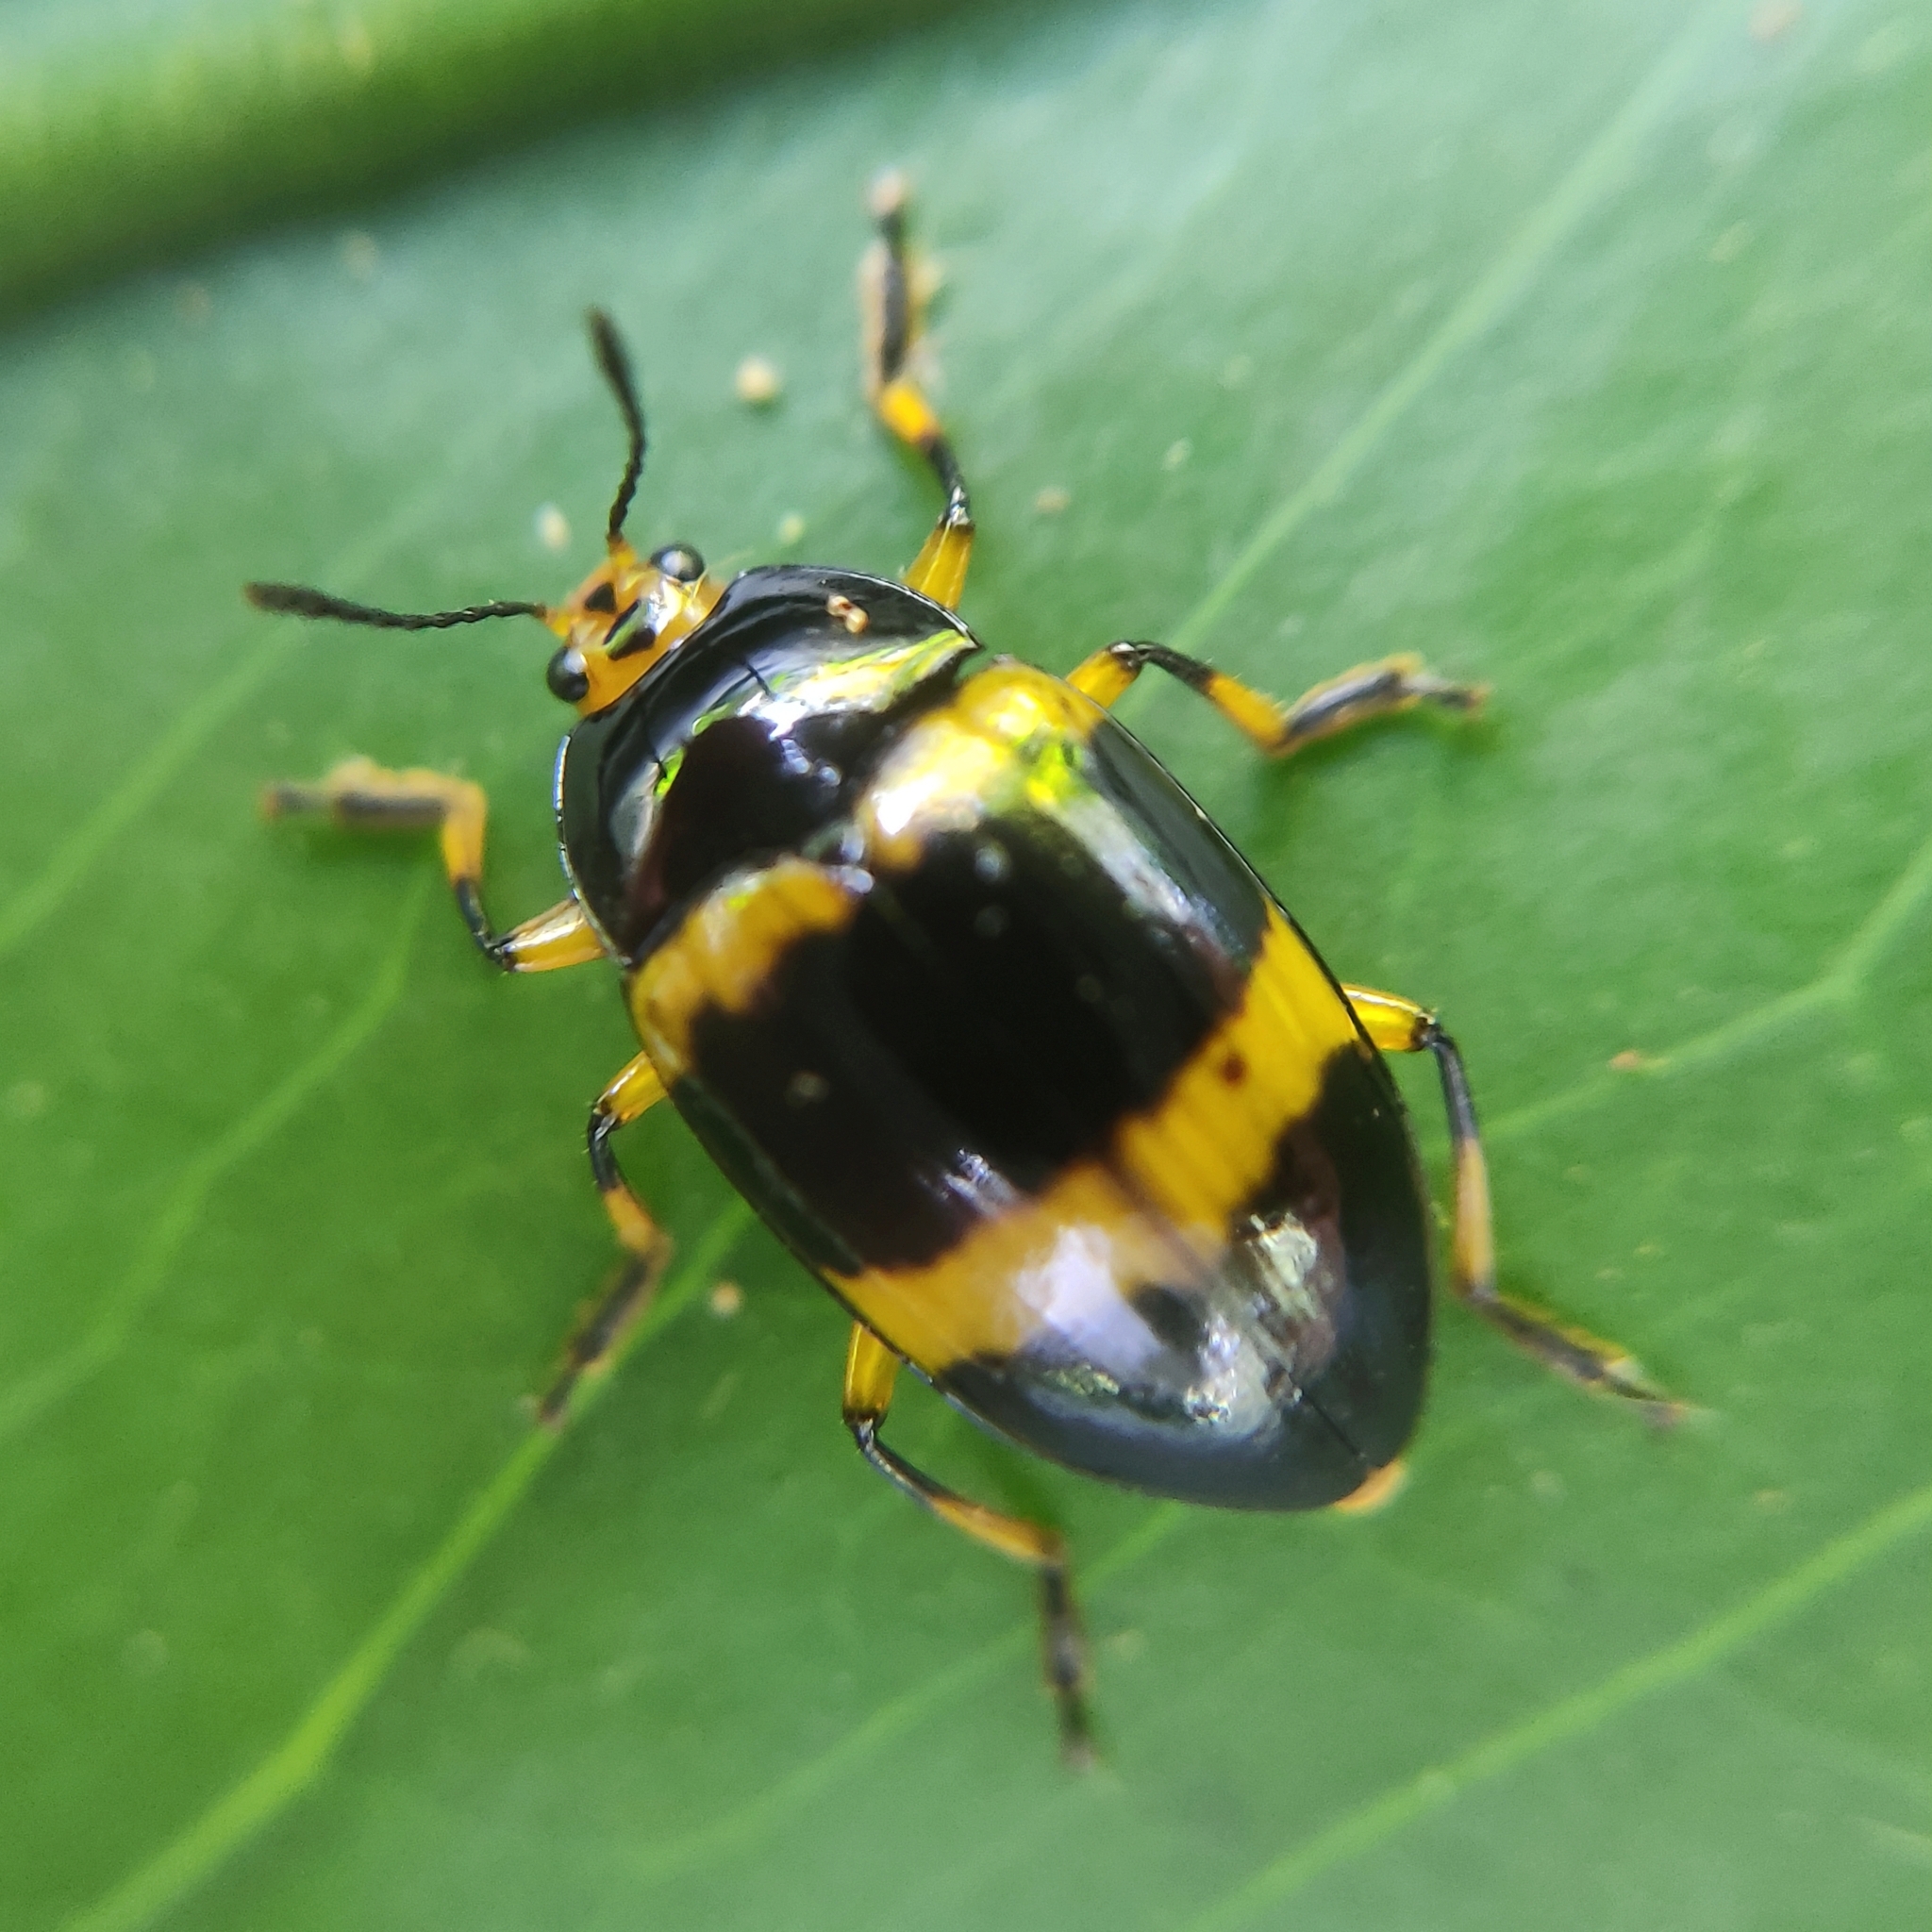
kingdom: Animalia
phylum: Arthropoda
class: Insecta
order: Coleoptera
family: Erotylidae
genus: Iphiclus
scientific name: Iphiclus
